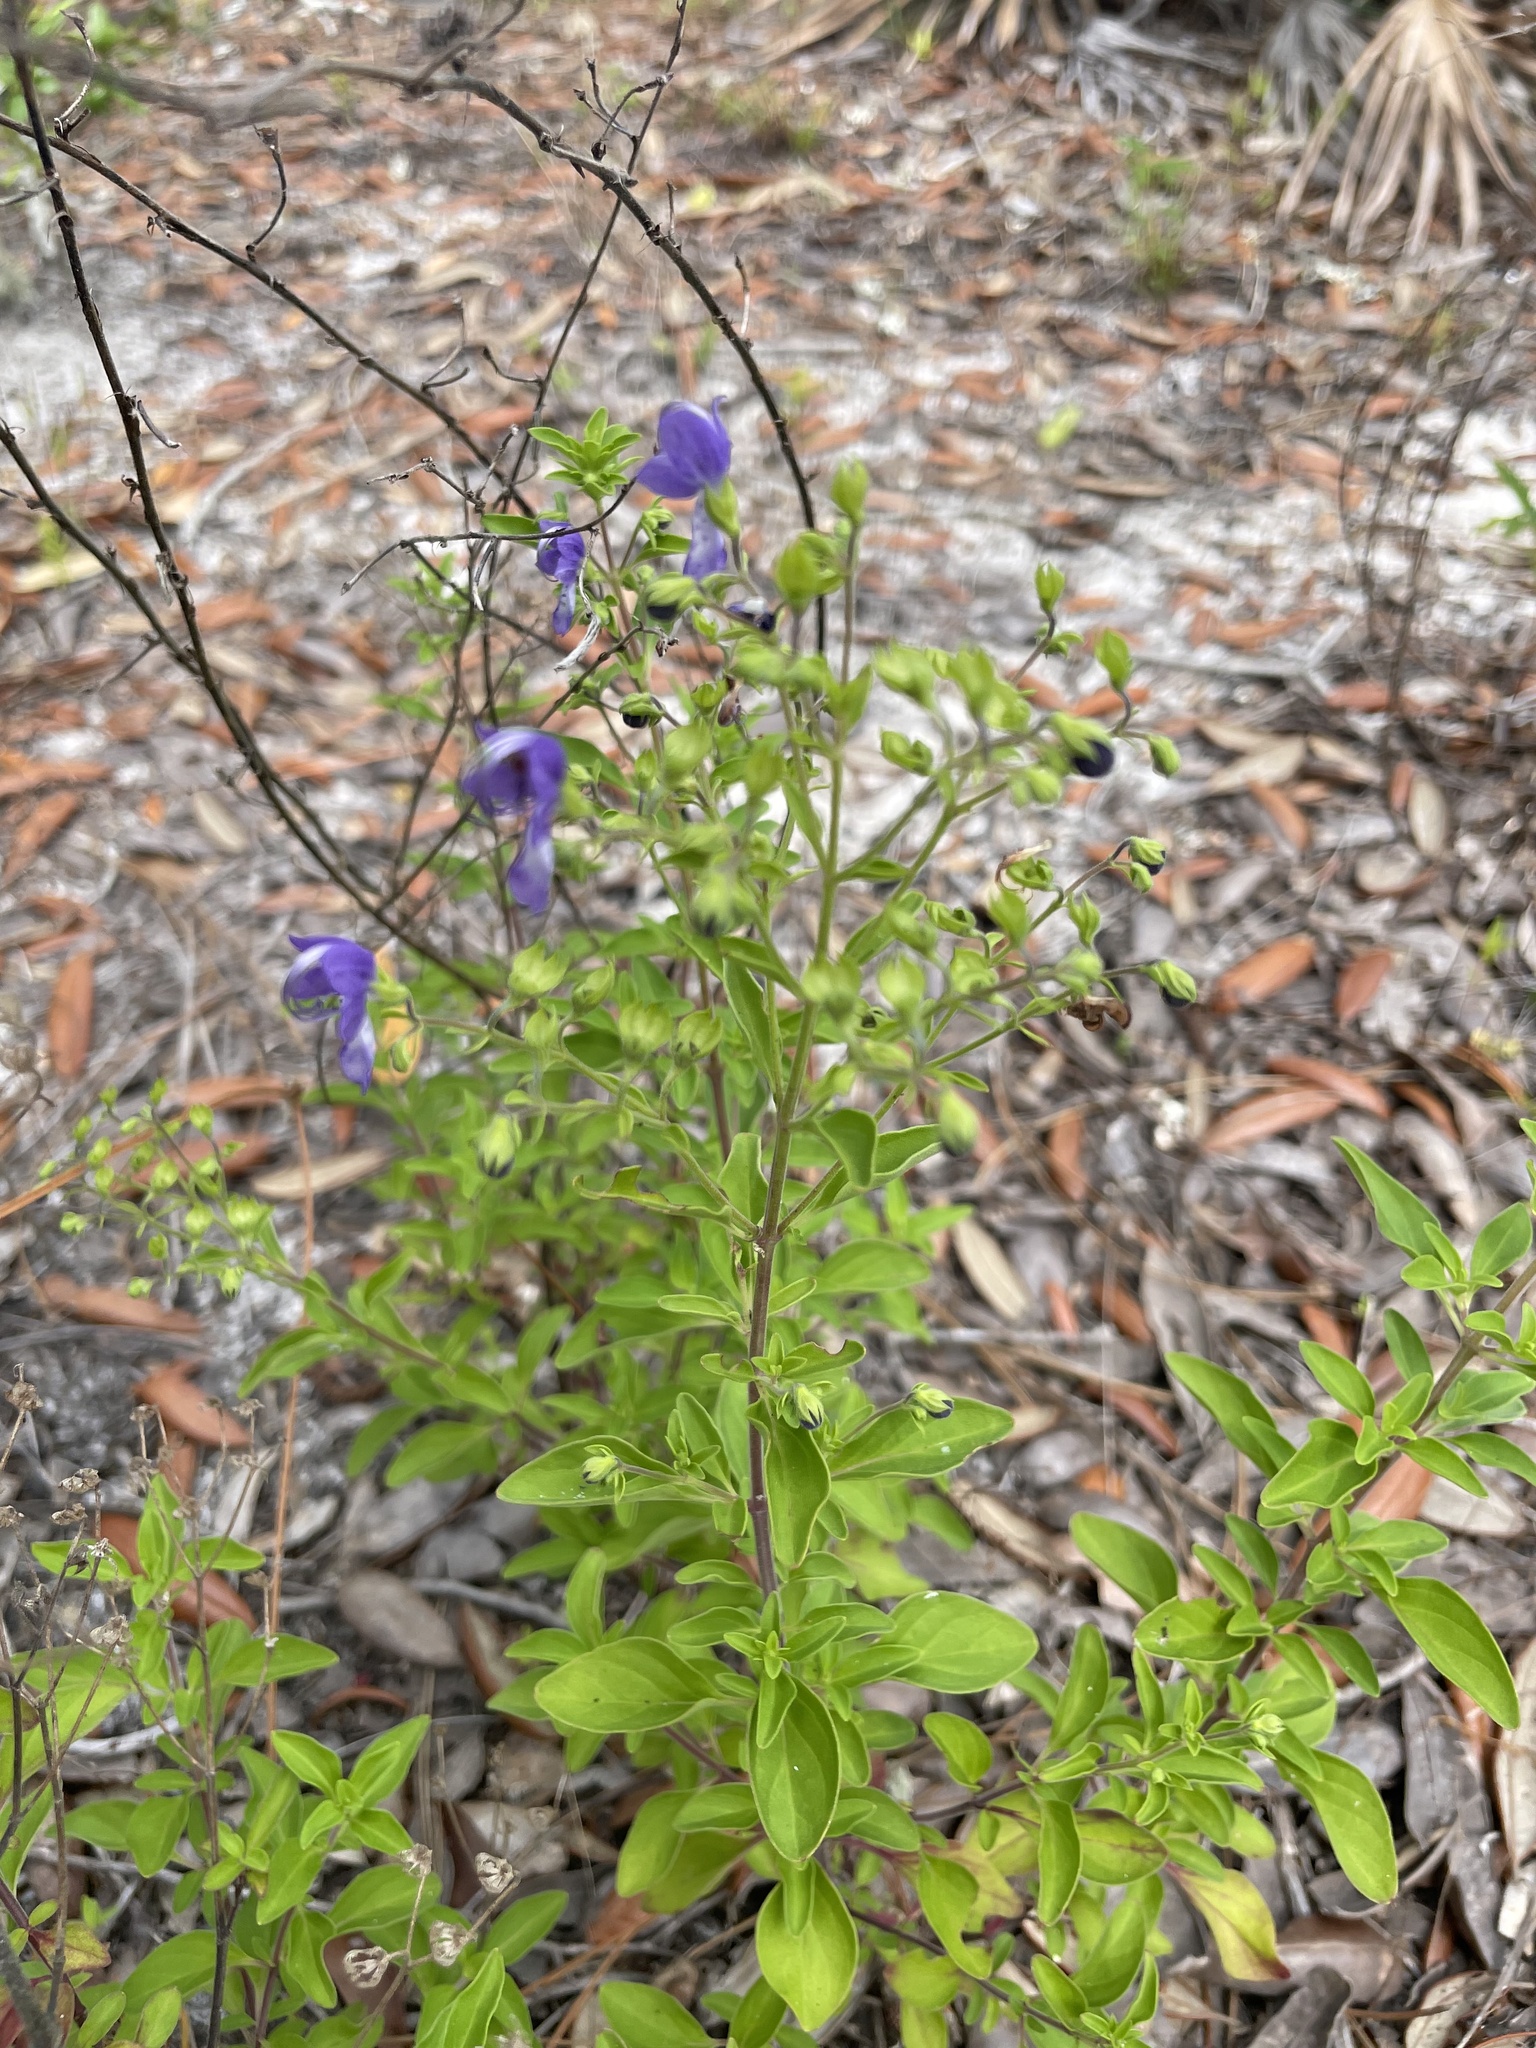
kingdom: Plantae
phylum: Tracheophyta
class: Magnoliopsida
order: Lamiales
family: Lamiaceae
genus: Trichostema
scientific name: Trichostema fruticosum
